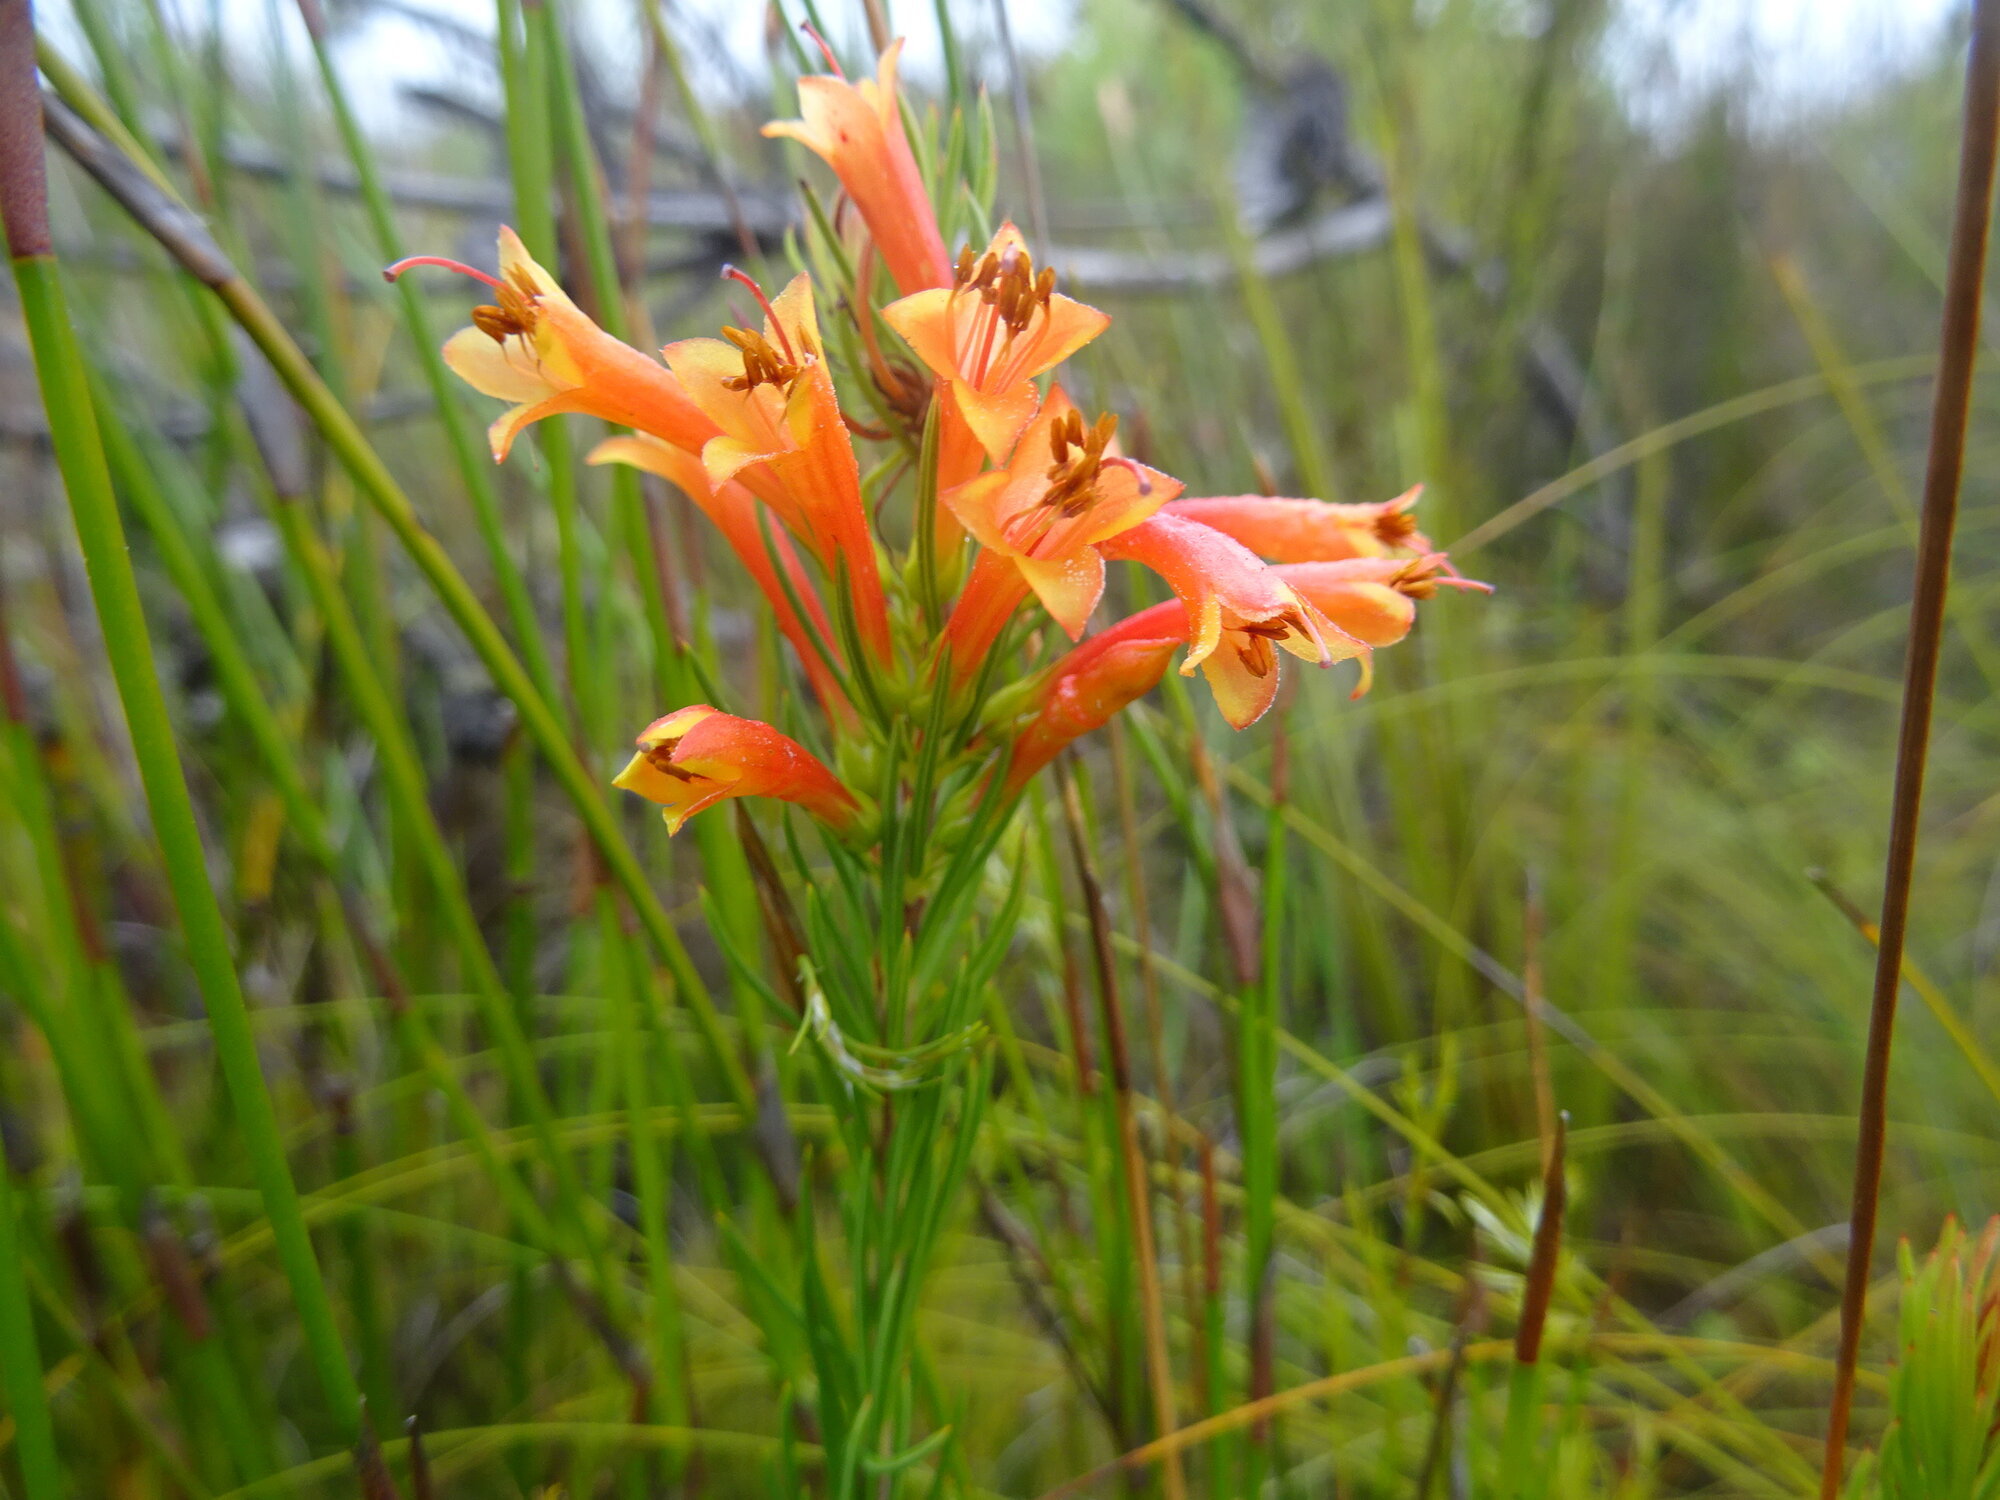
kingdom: Plantae
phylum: Tracheophyta
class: Magnoliopsida
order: Ericales
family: Ericaceae
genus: Erica
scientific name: Erica grandiflora
